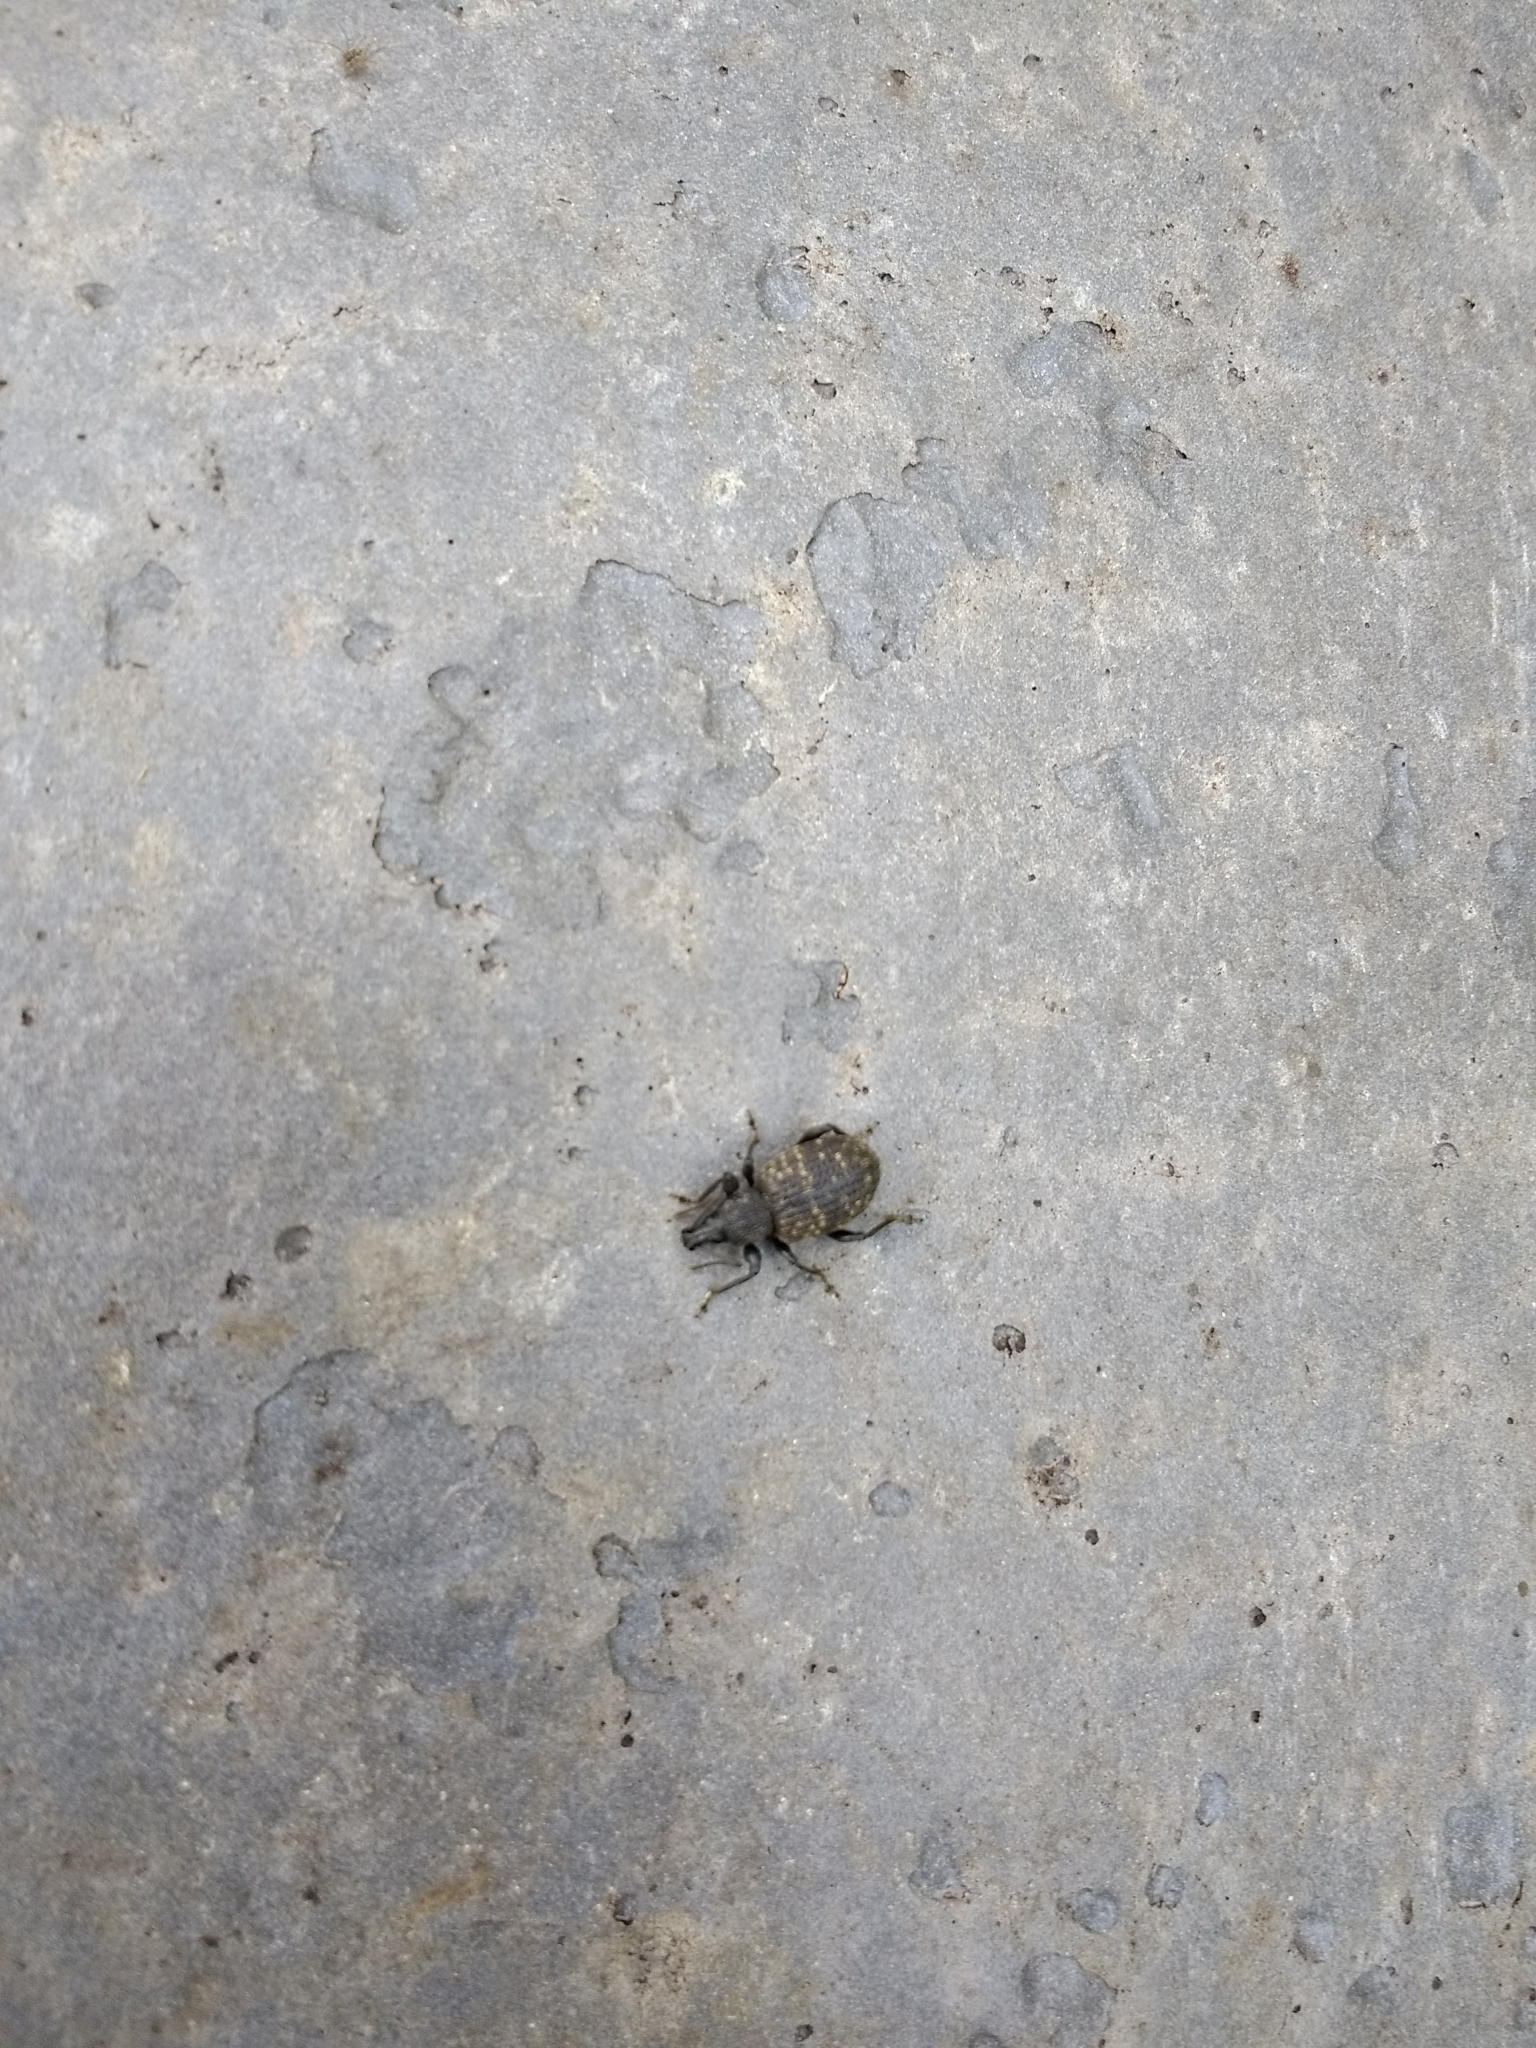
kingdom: Animalia
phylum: Arthropoda
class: Insecta
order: Coleoptera
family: Curculionidae
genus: Otiorhynchus
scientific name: Otiorhynchus sulcatus
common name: Black vine weevil
